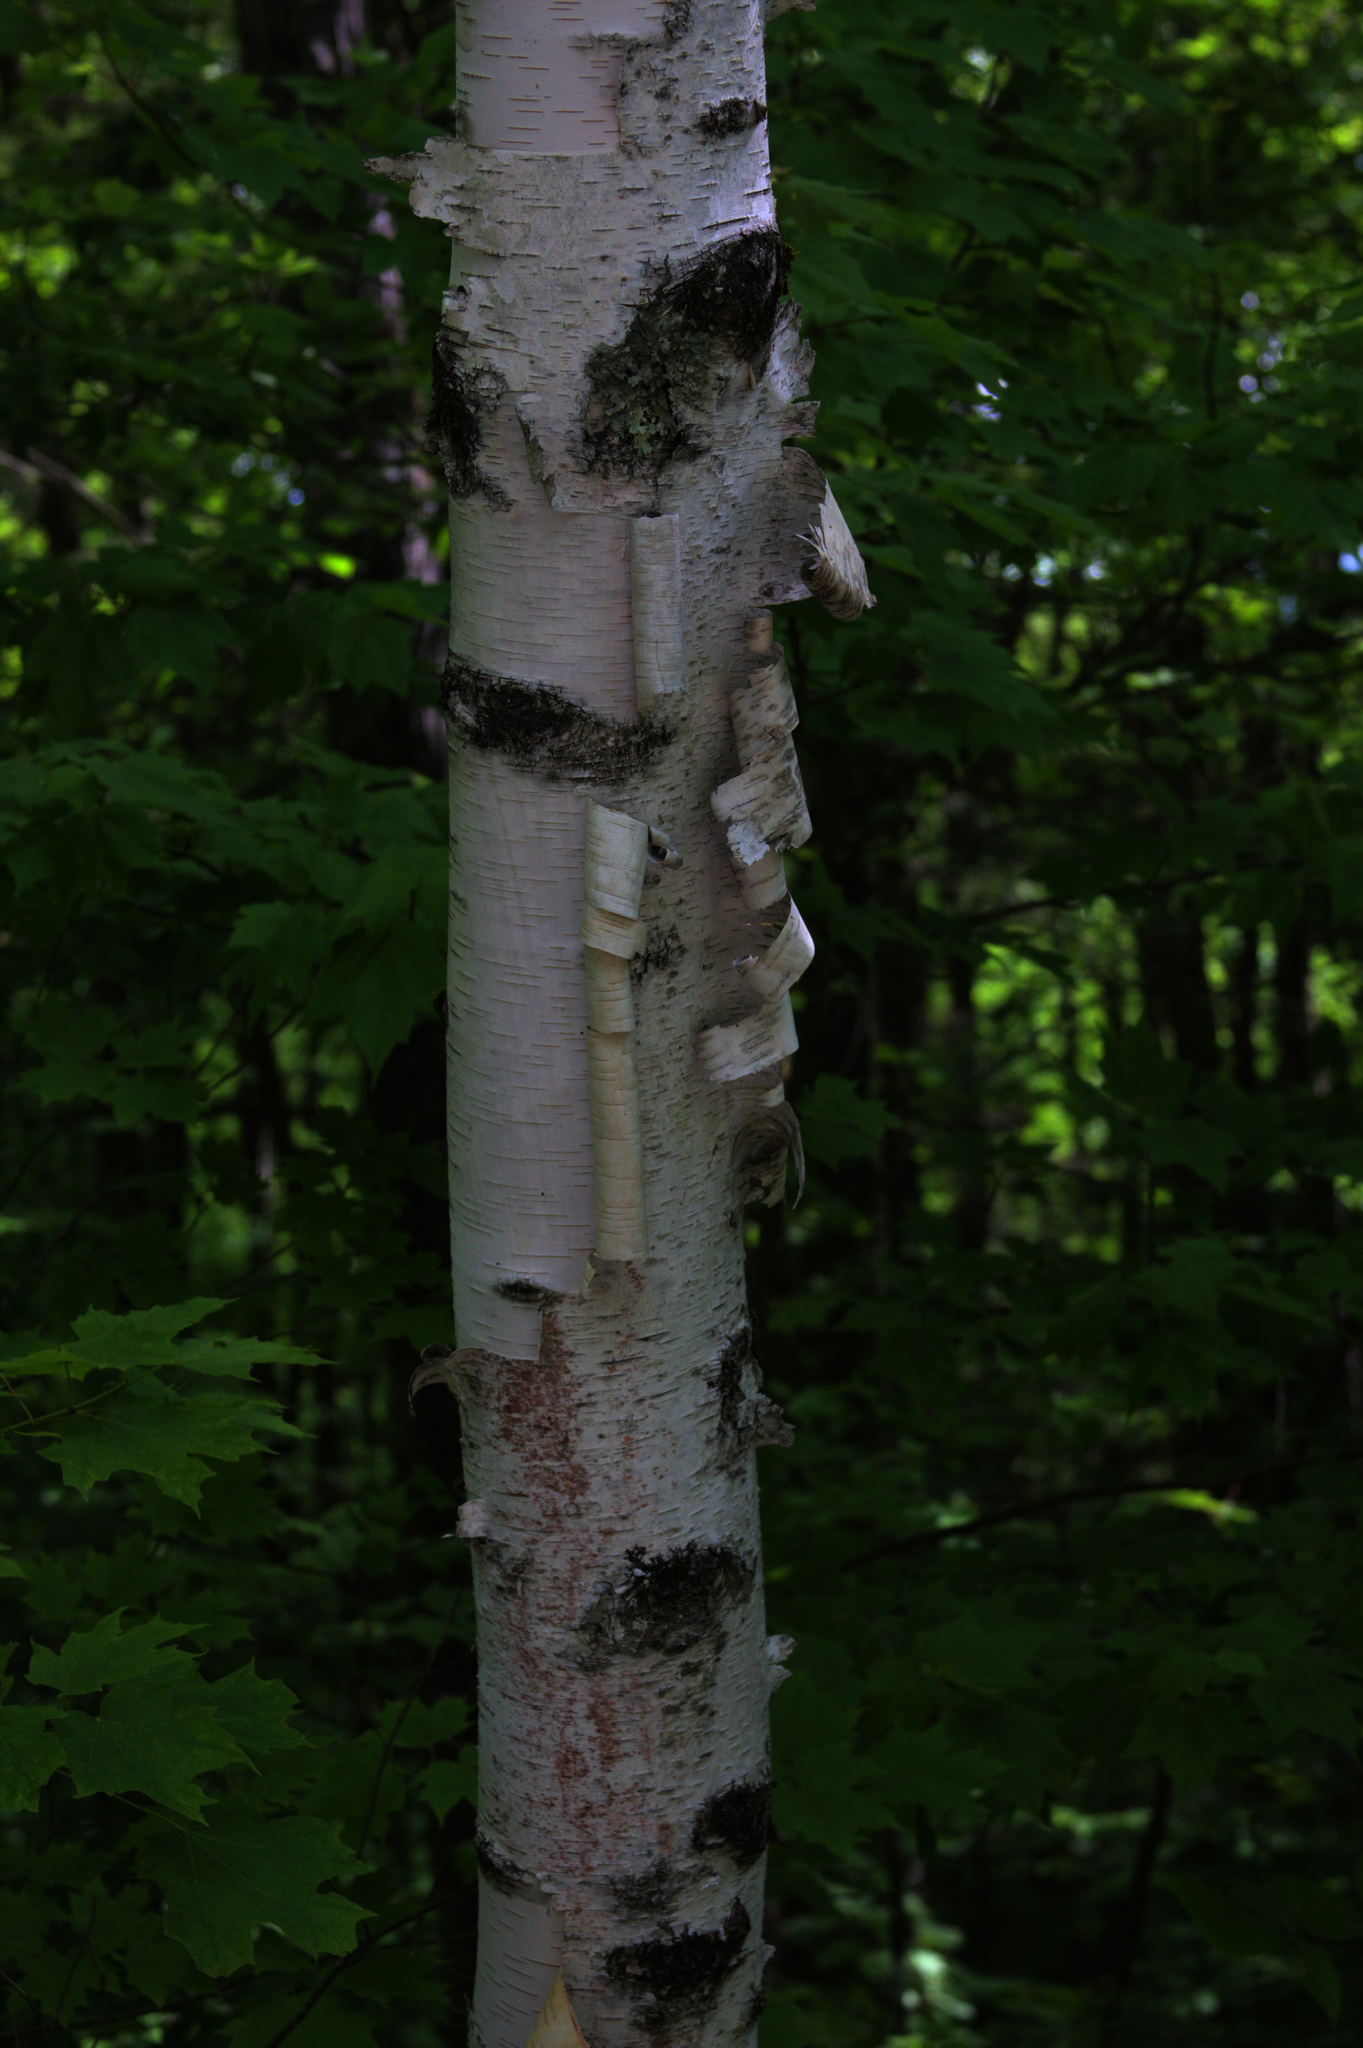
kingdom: Plantae
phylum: Tracheophyta
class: Magnoliopsida
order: Fagales
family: Betulaceae
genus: Betula
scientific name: Betula papyrifera
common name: Paper birch
